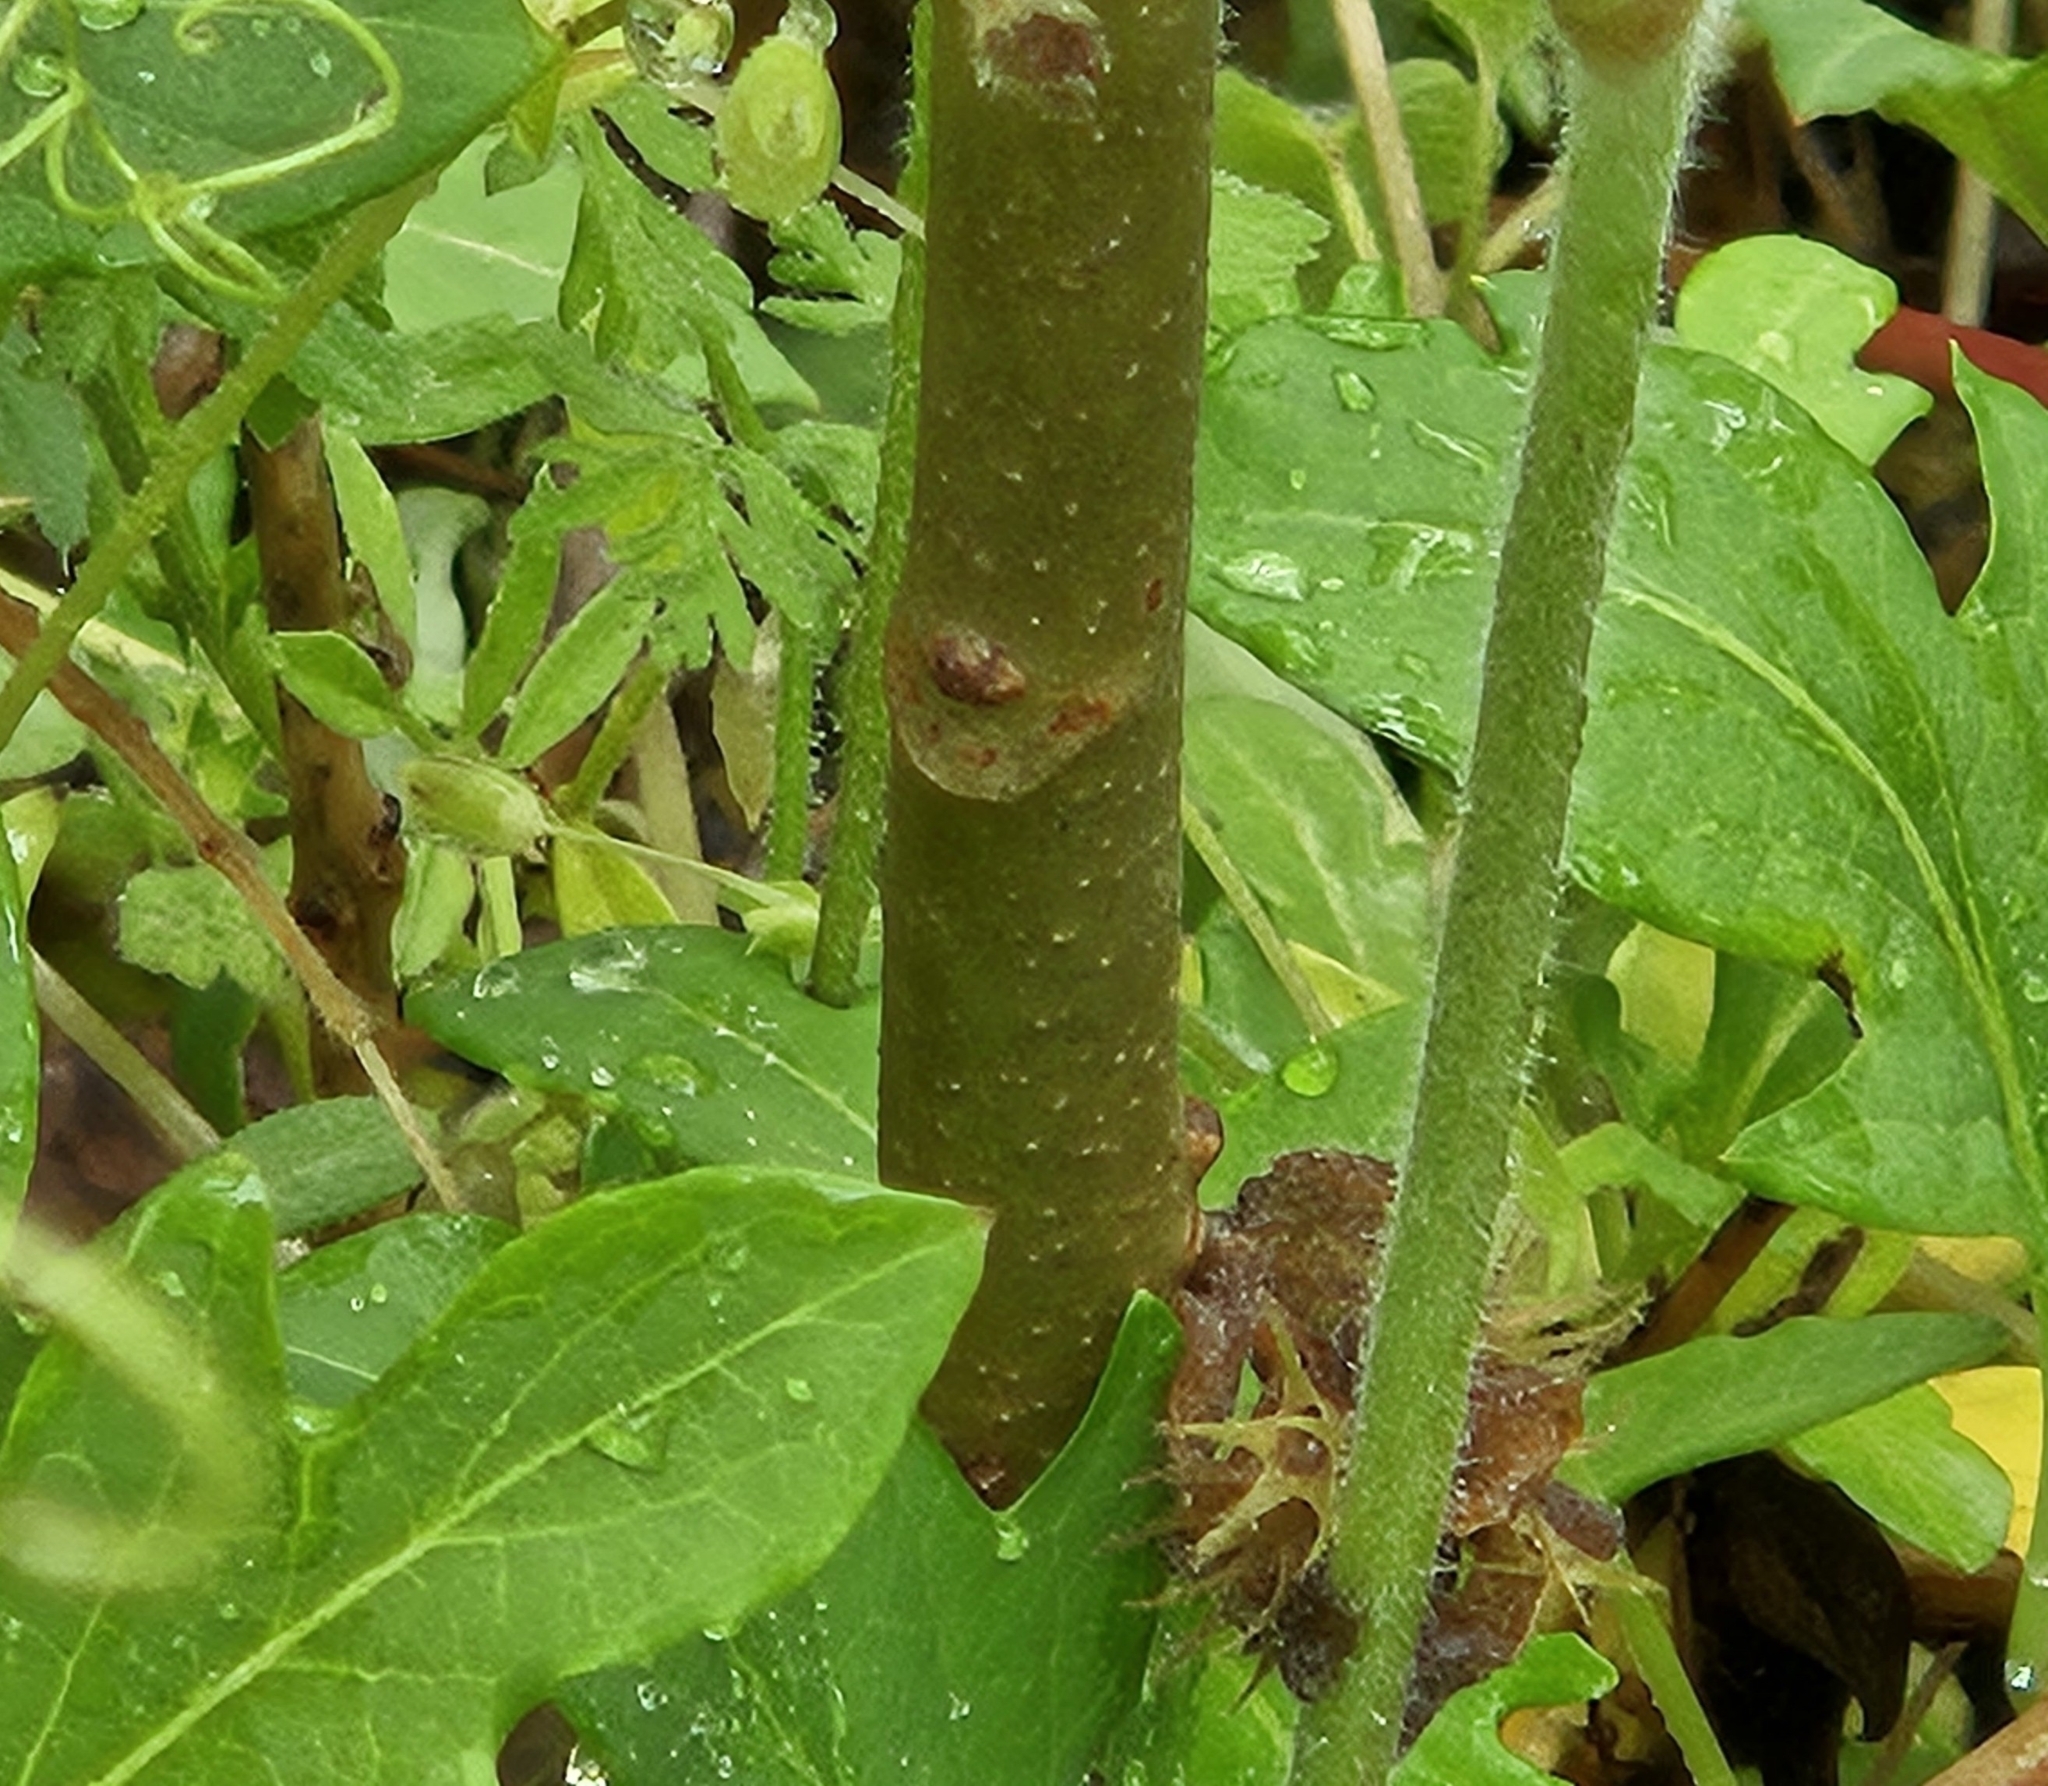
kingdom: Plantae
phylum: Tracheophyta
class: Magnoliopsida
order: Sapindales
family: Simaroubaceae
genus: Ailanthus
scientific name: Ailanthus altissima
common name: Tree-of-heaven
